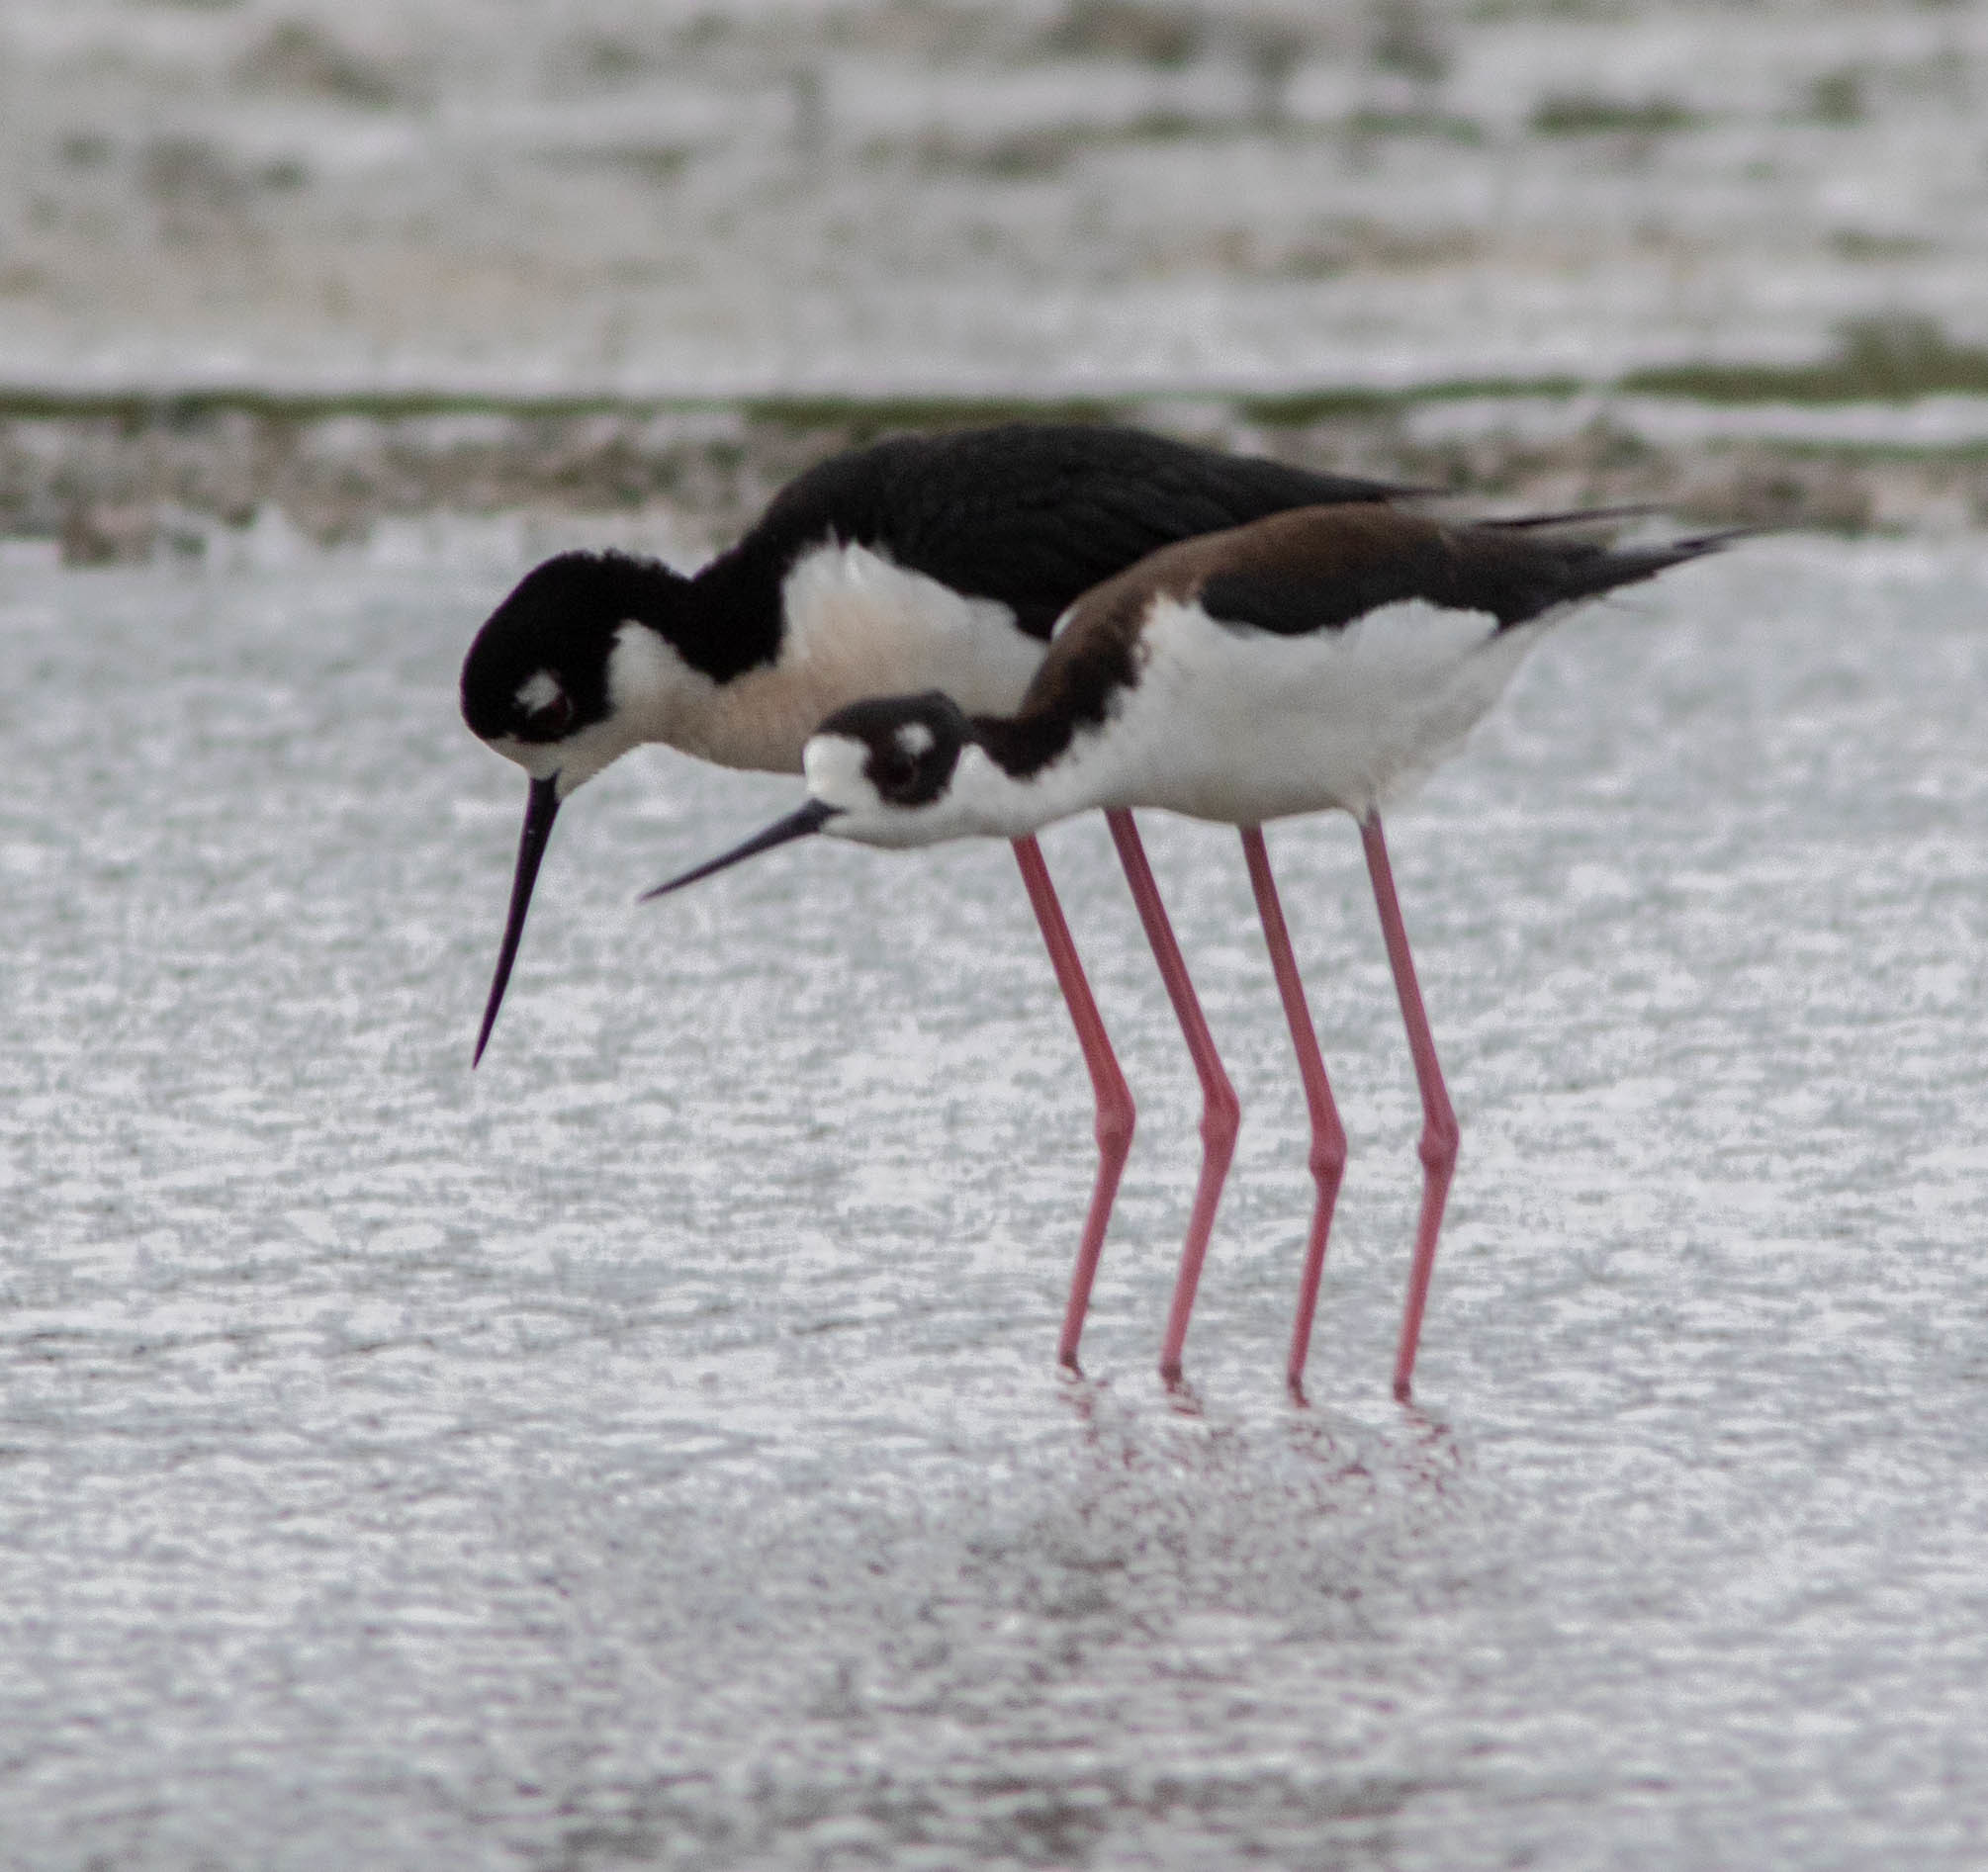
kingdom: Animalia
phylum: Chordata
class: Aves
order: Charadriiformes
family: Recurvirostridae
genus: Himantopus
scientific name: Himantopus mexicanus
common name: Black-necked stilt
